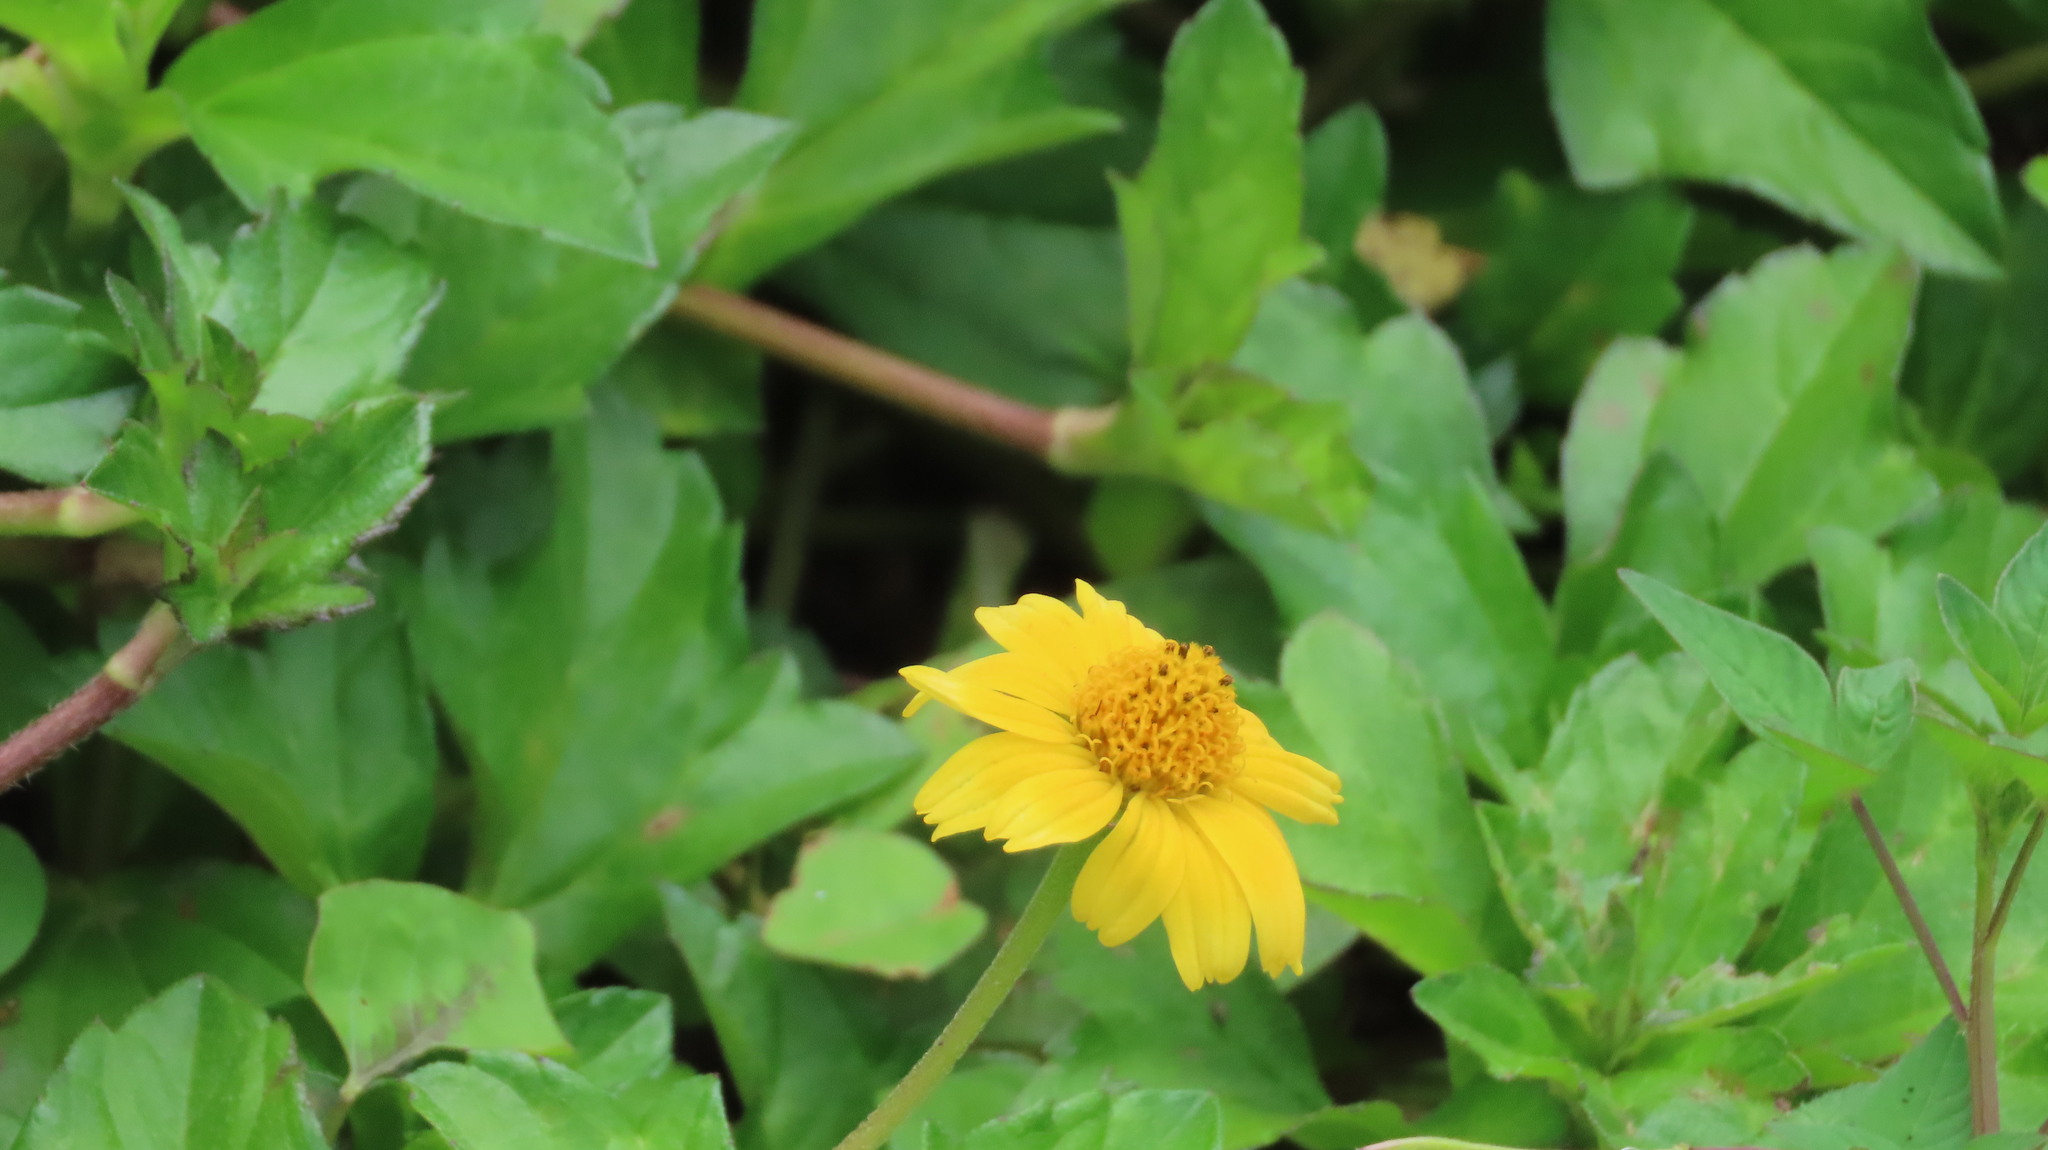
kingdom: Plantae
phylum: Tracheophyta
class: Magnoliopsida
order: Asterales
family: Asteraceae
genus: Sphagneticola
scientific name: Sphagneticola trilobata
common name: Bay biscayne creeping-oxeye
